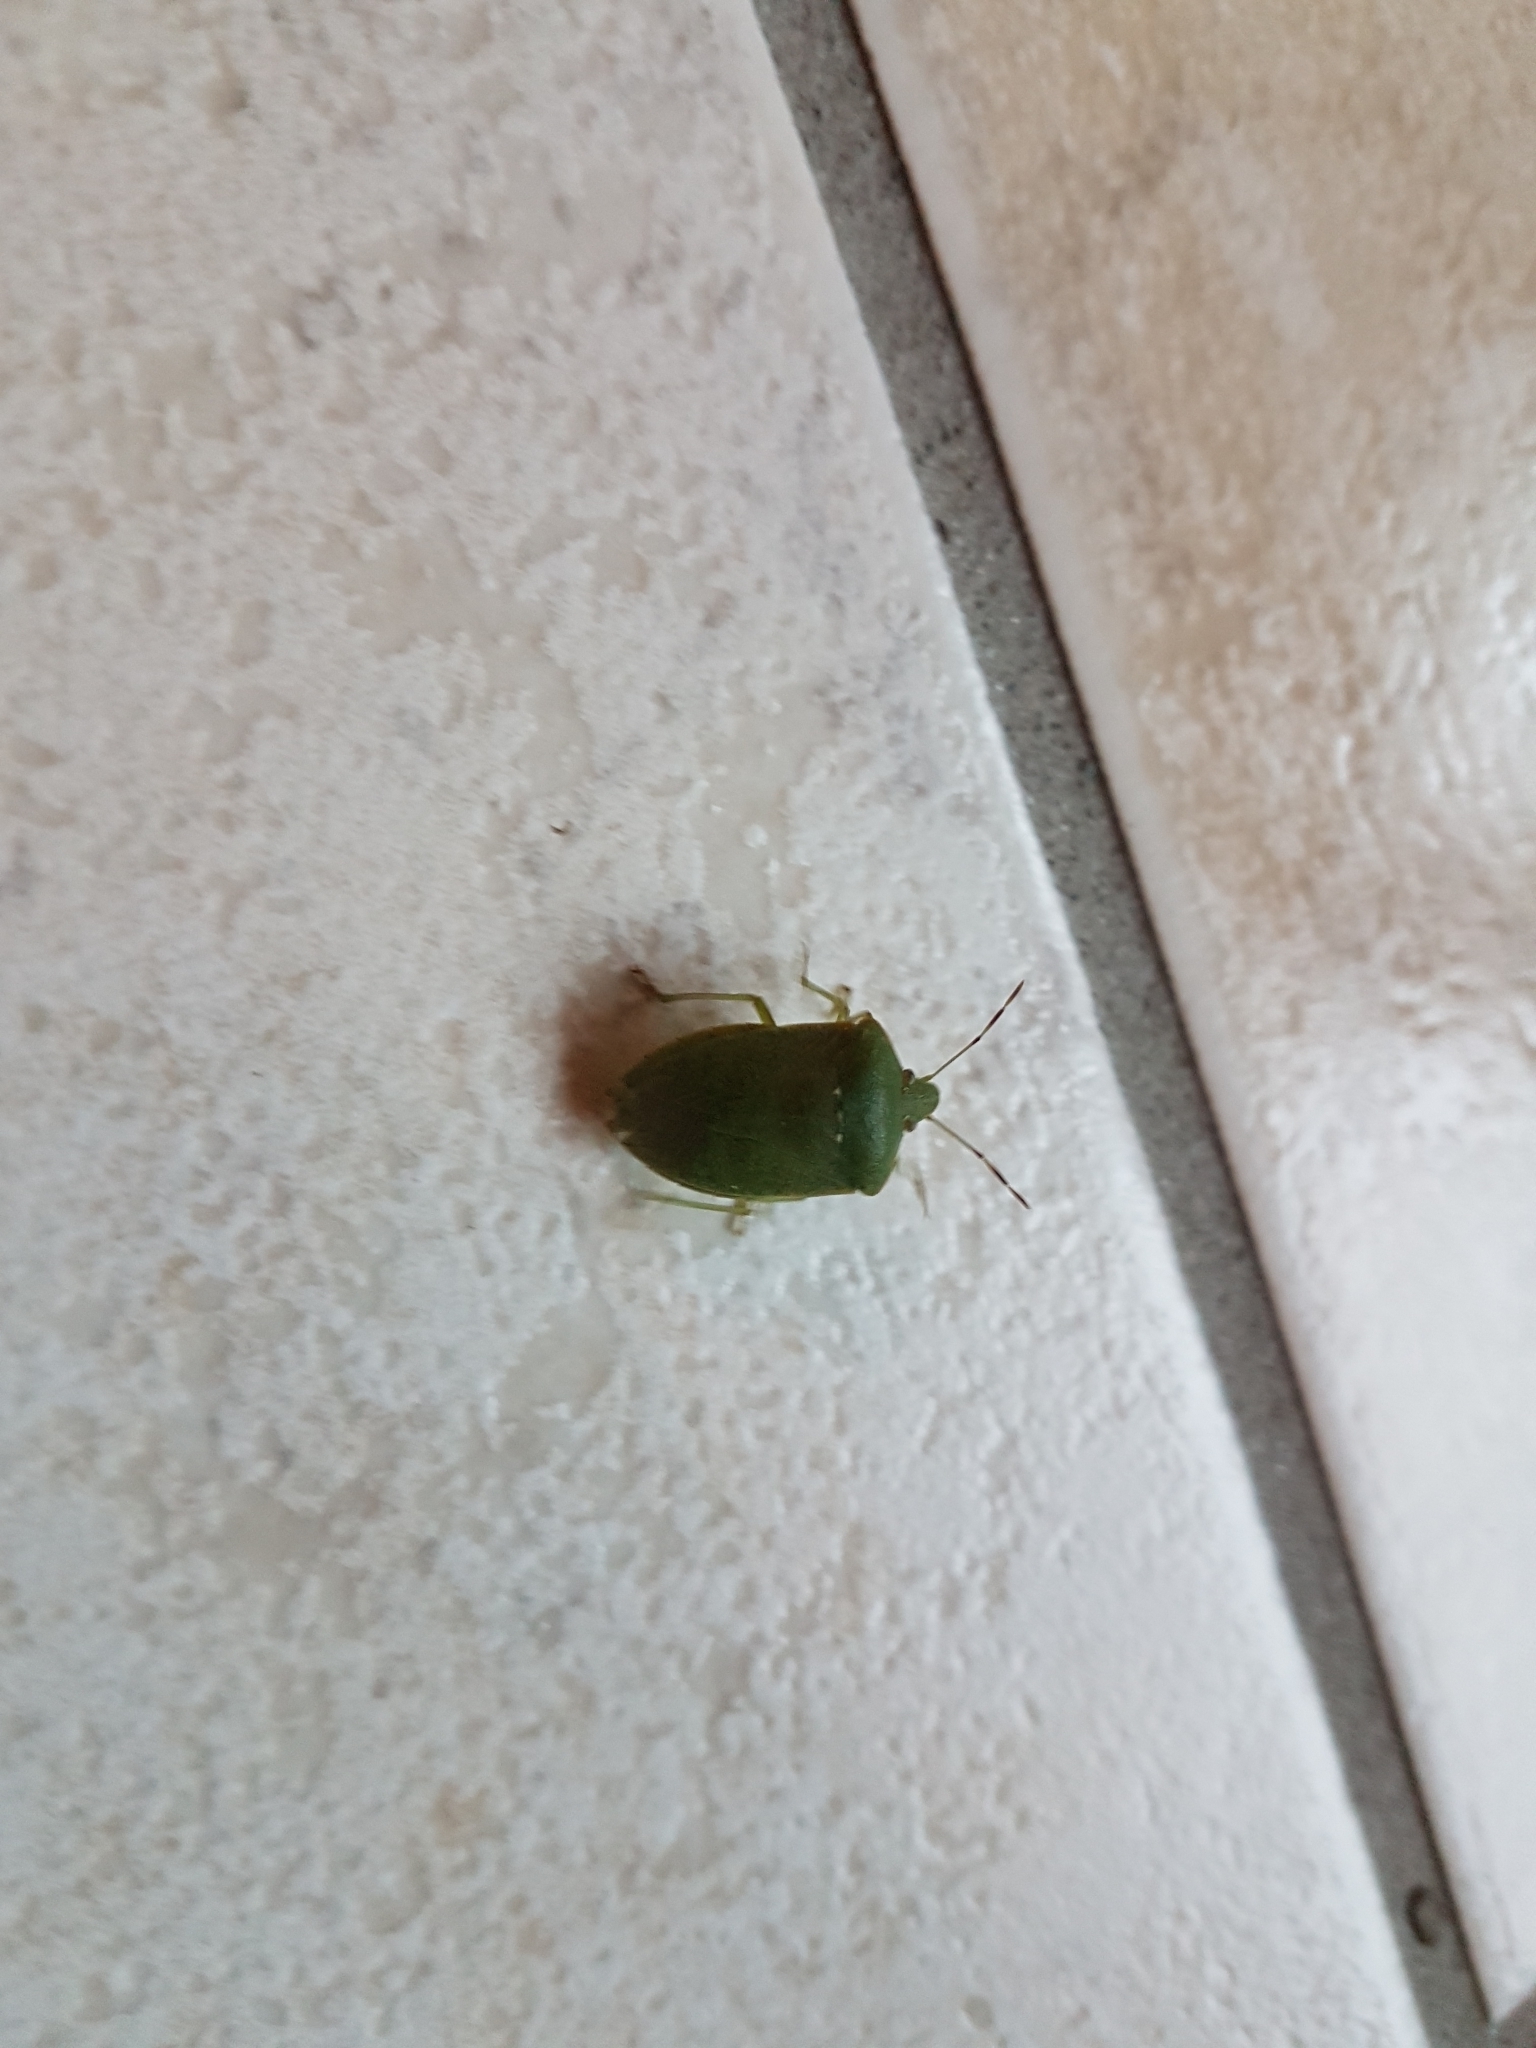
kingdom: Animalia
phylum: Arthropoda
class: Insecta
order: Hemiptera
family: Pentatomidae
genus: Nezara
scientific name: Nezara viridula
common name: Southern green stink bug
